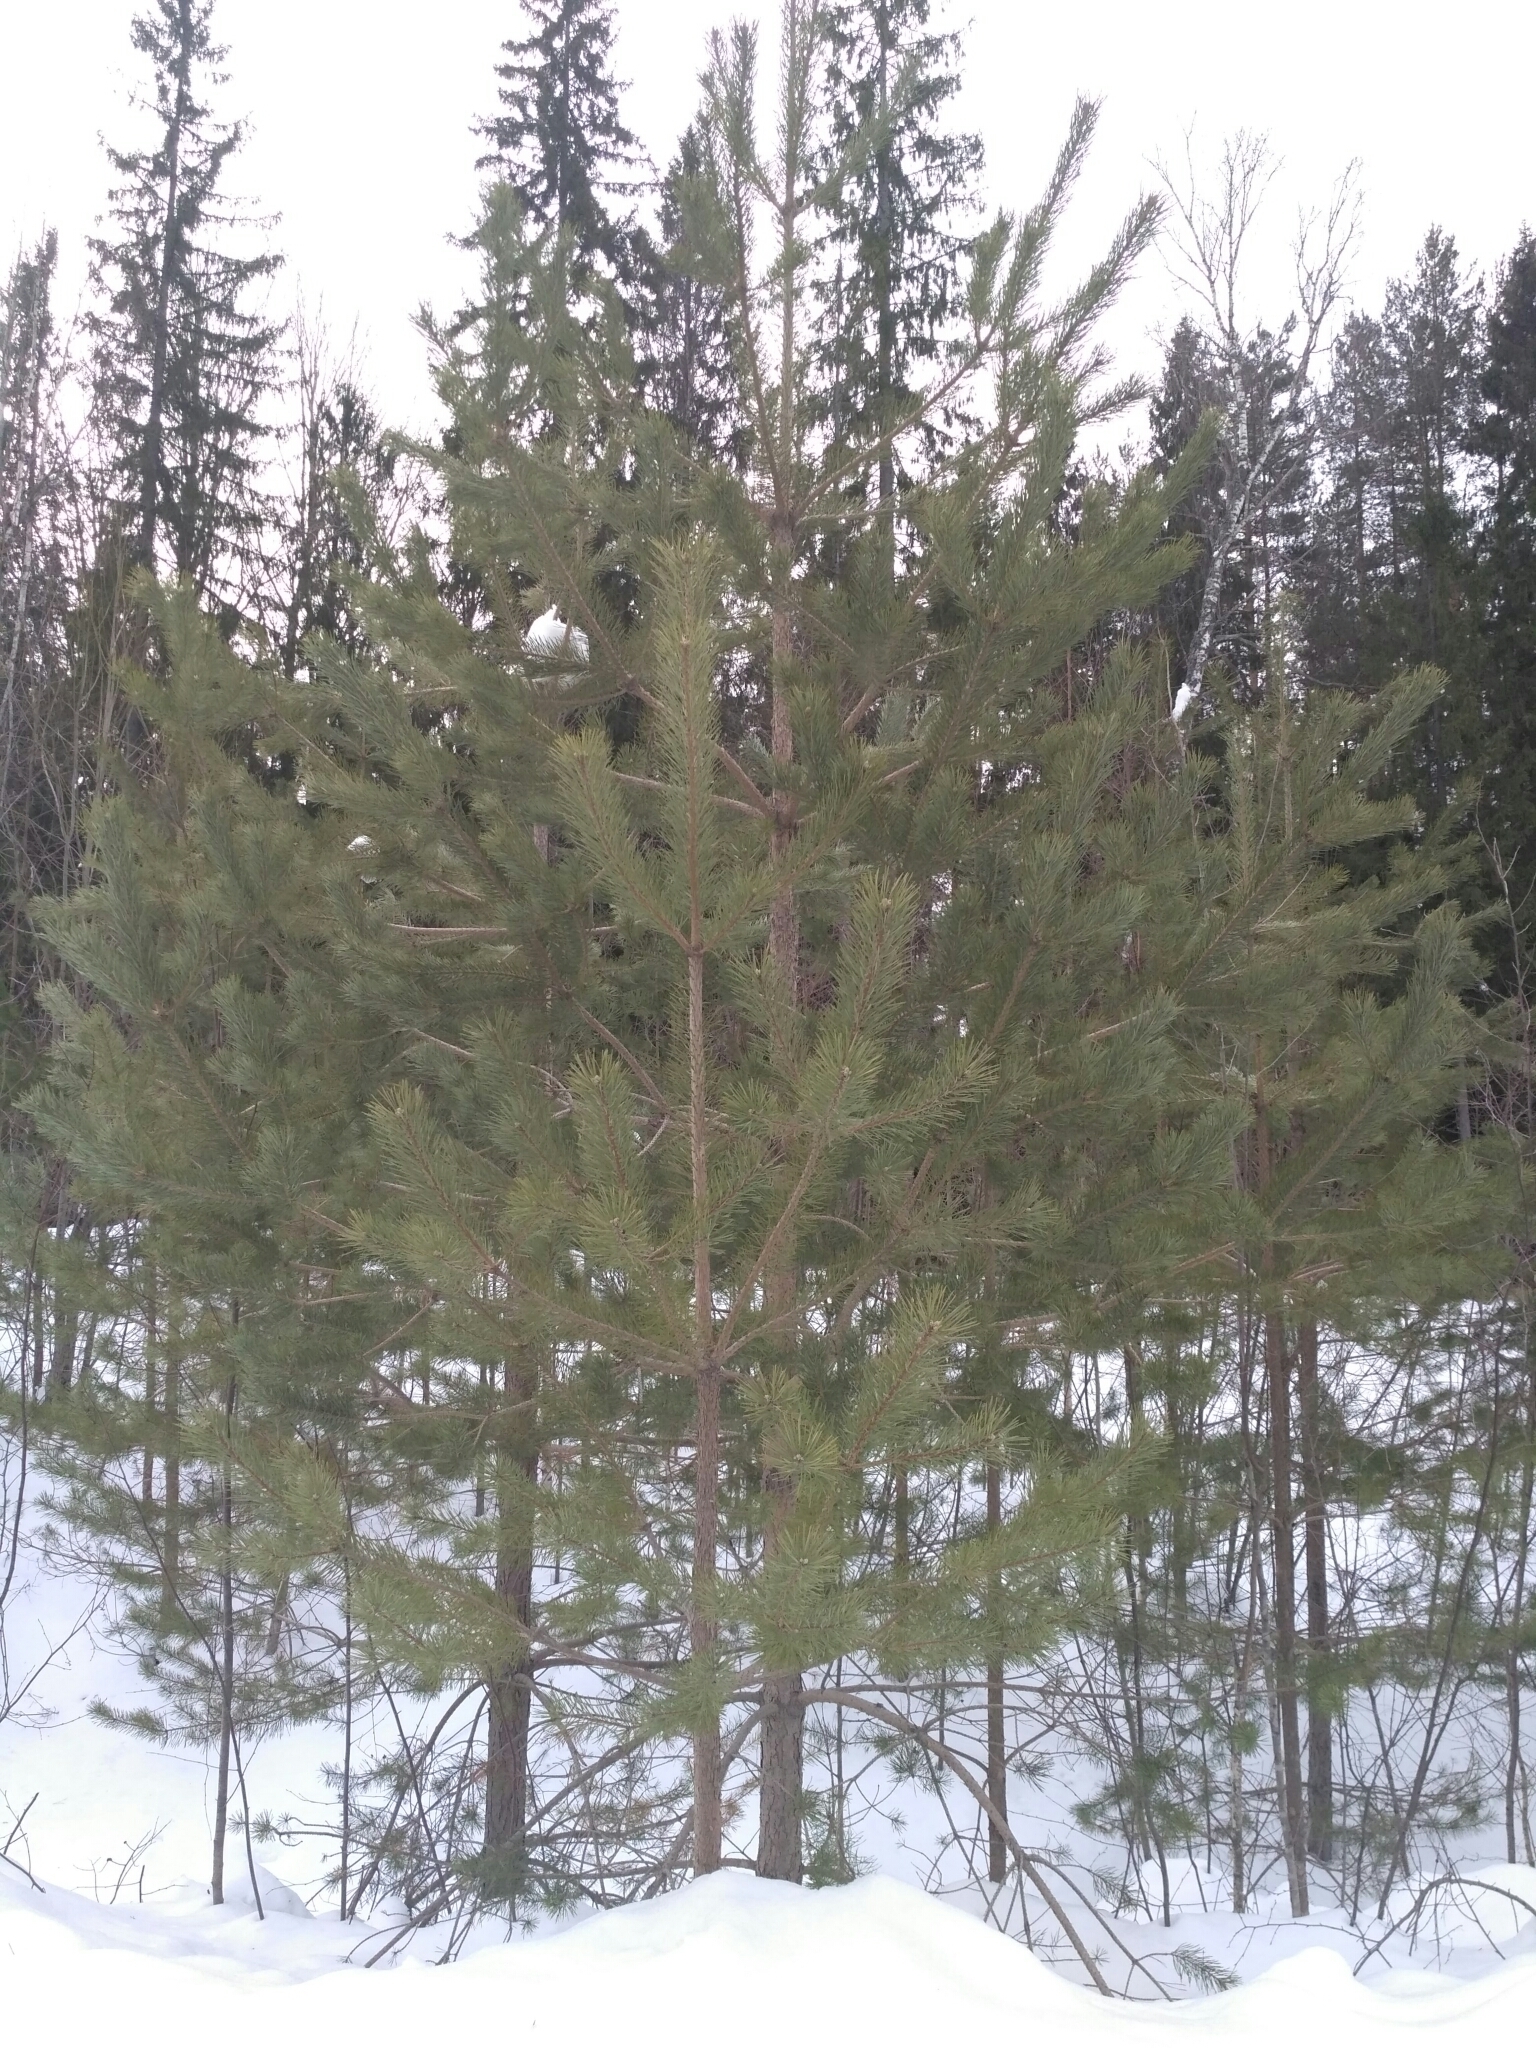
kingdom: Plantae
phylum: Tracheophyta
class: Pinopsida
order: Pinales
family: Pinaceae
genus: Pinus
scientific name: Pinus sylvestris
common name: Scots pine
